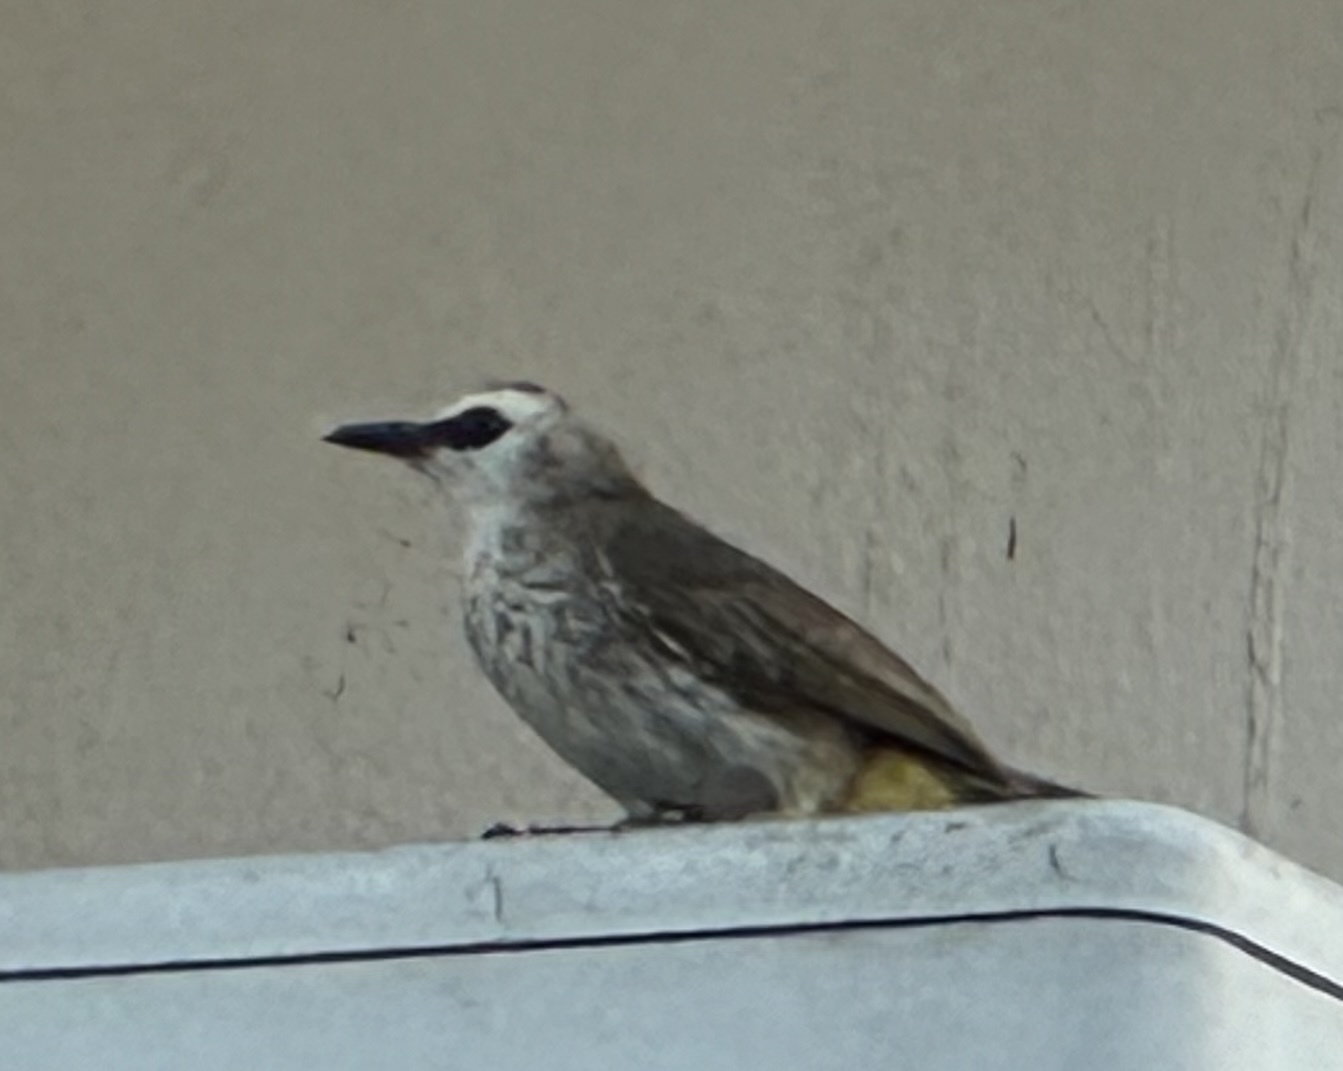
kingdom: Animalia
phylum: Chordata
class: Aves
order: Passeriformes
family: Pycnonotidae
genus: Pycnonotus
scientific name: Pycnonotus goiavier
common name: Yellow-vented bulbul
